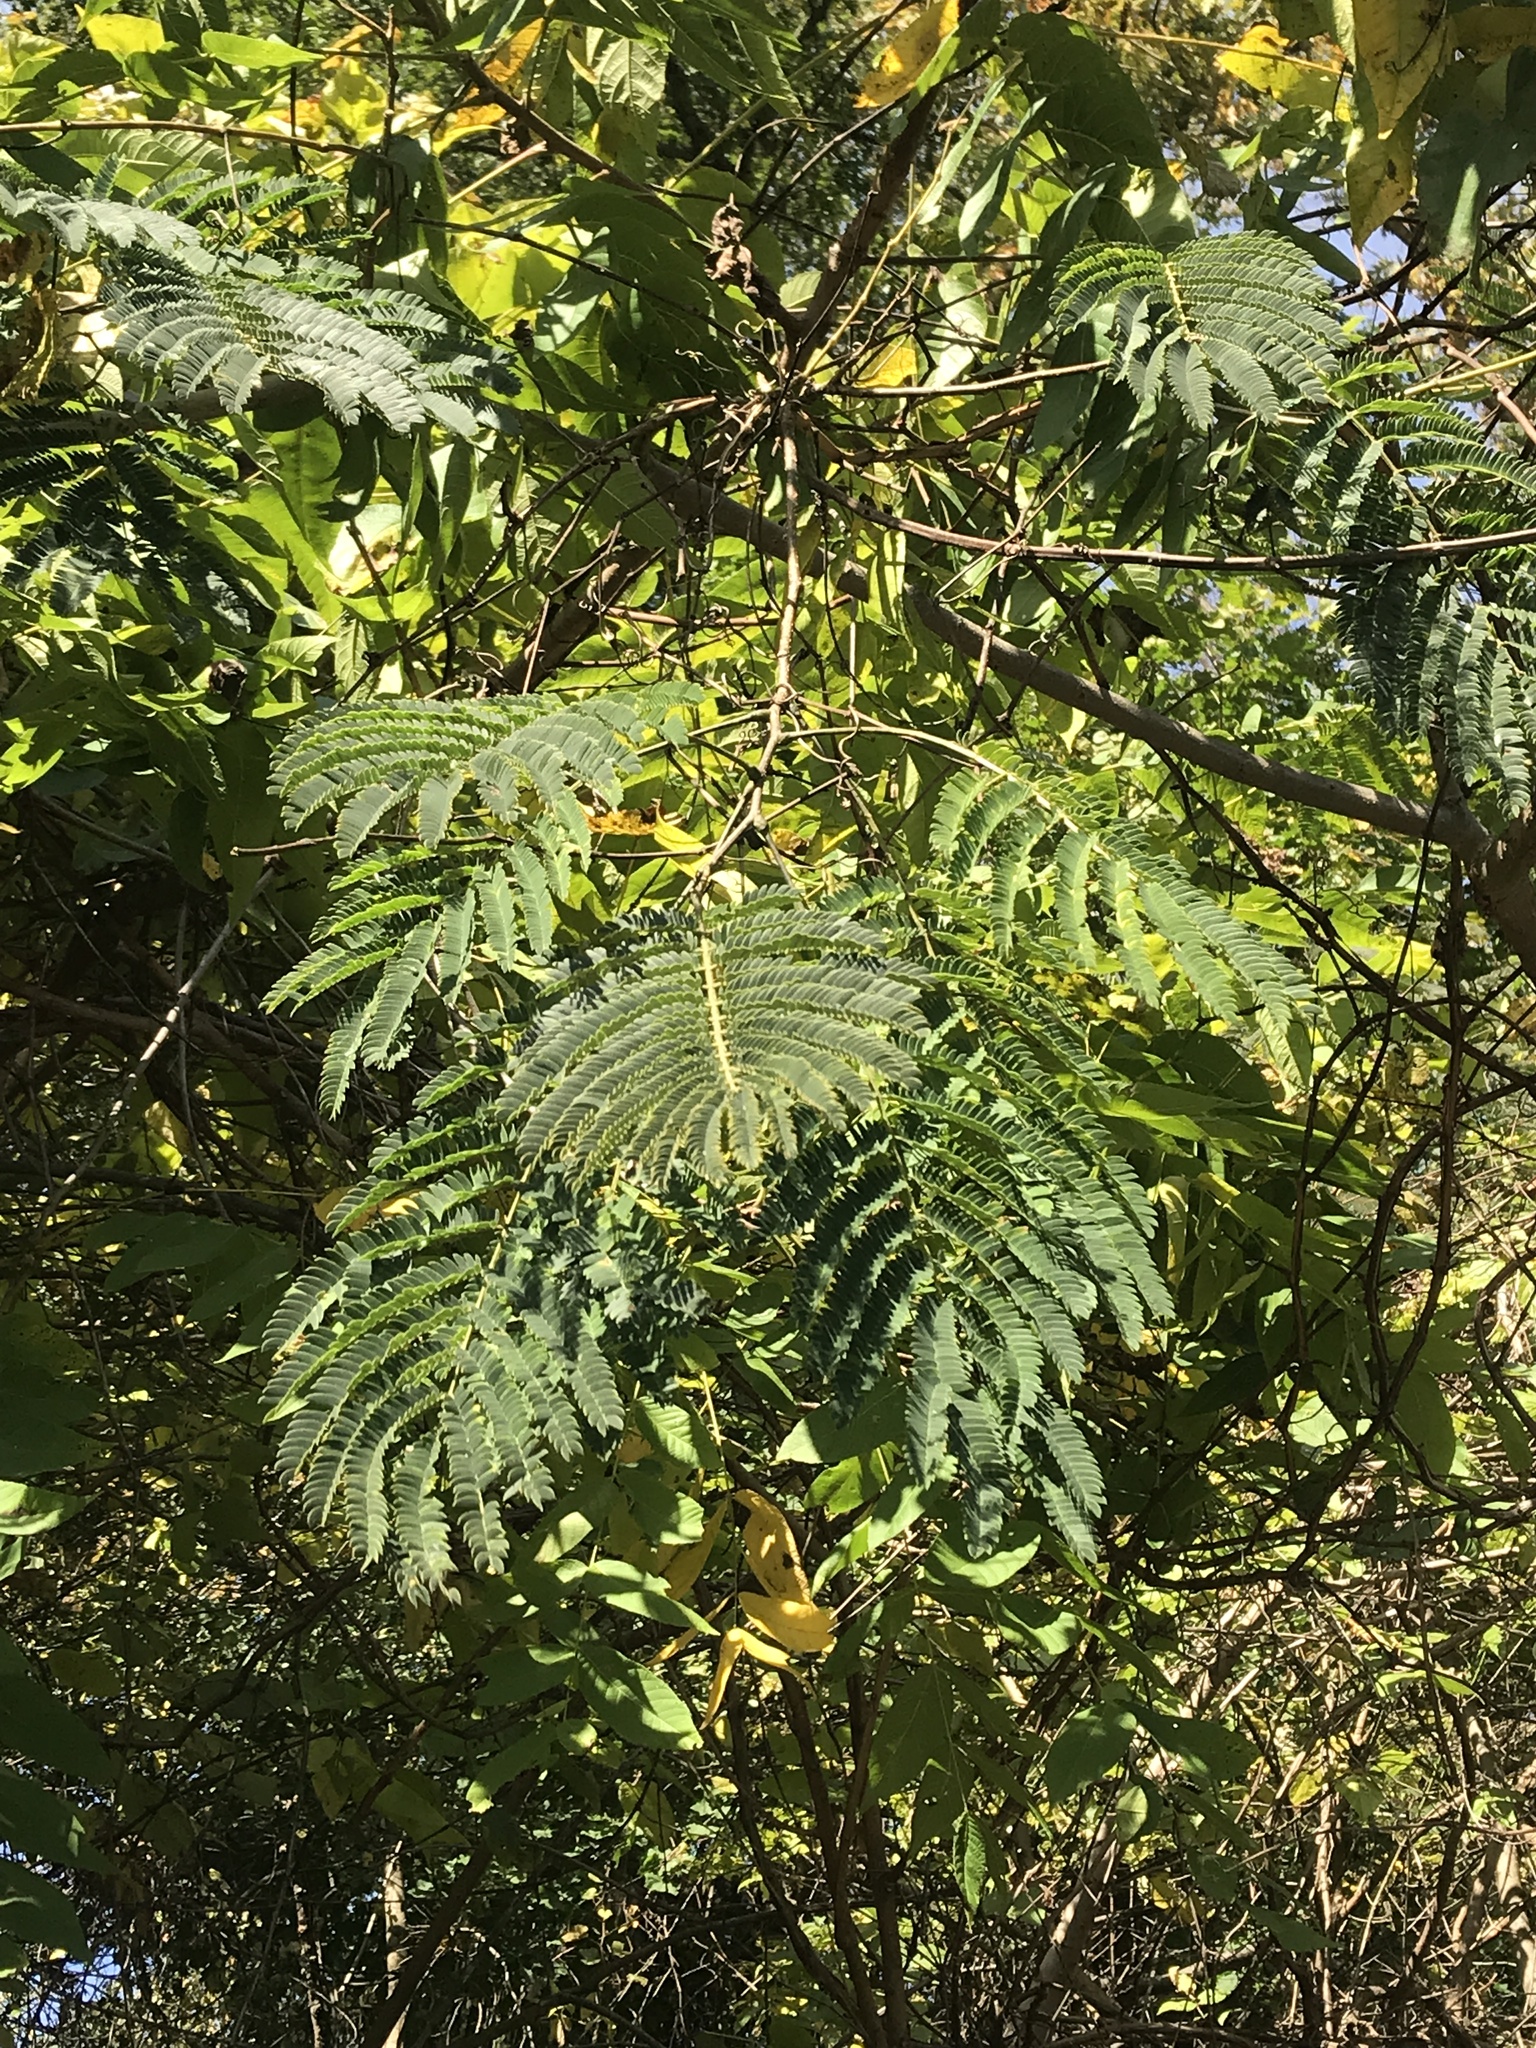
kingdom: Plantae
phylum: Tracheophyta
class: Magnoliopsida
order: Fabales
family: Fabaceae
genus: Albizia
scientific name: Albizia julibrissin
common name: Silktree
